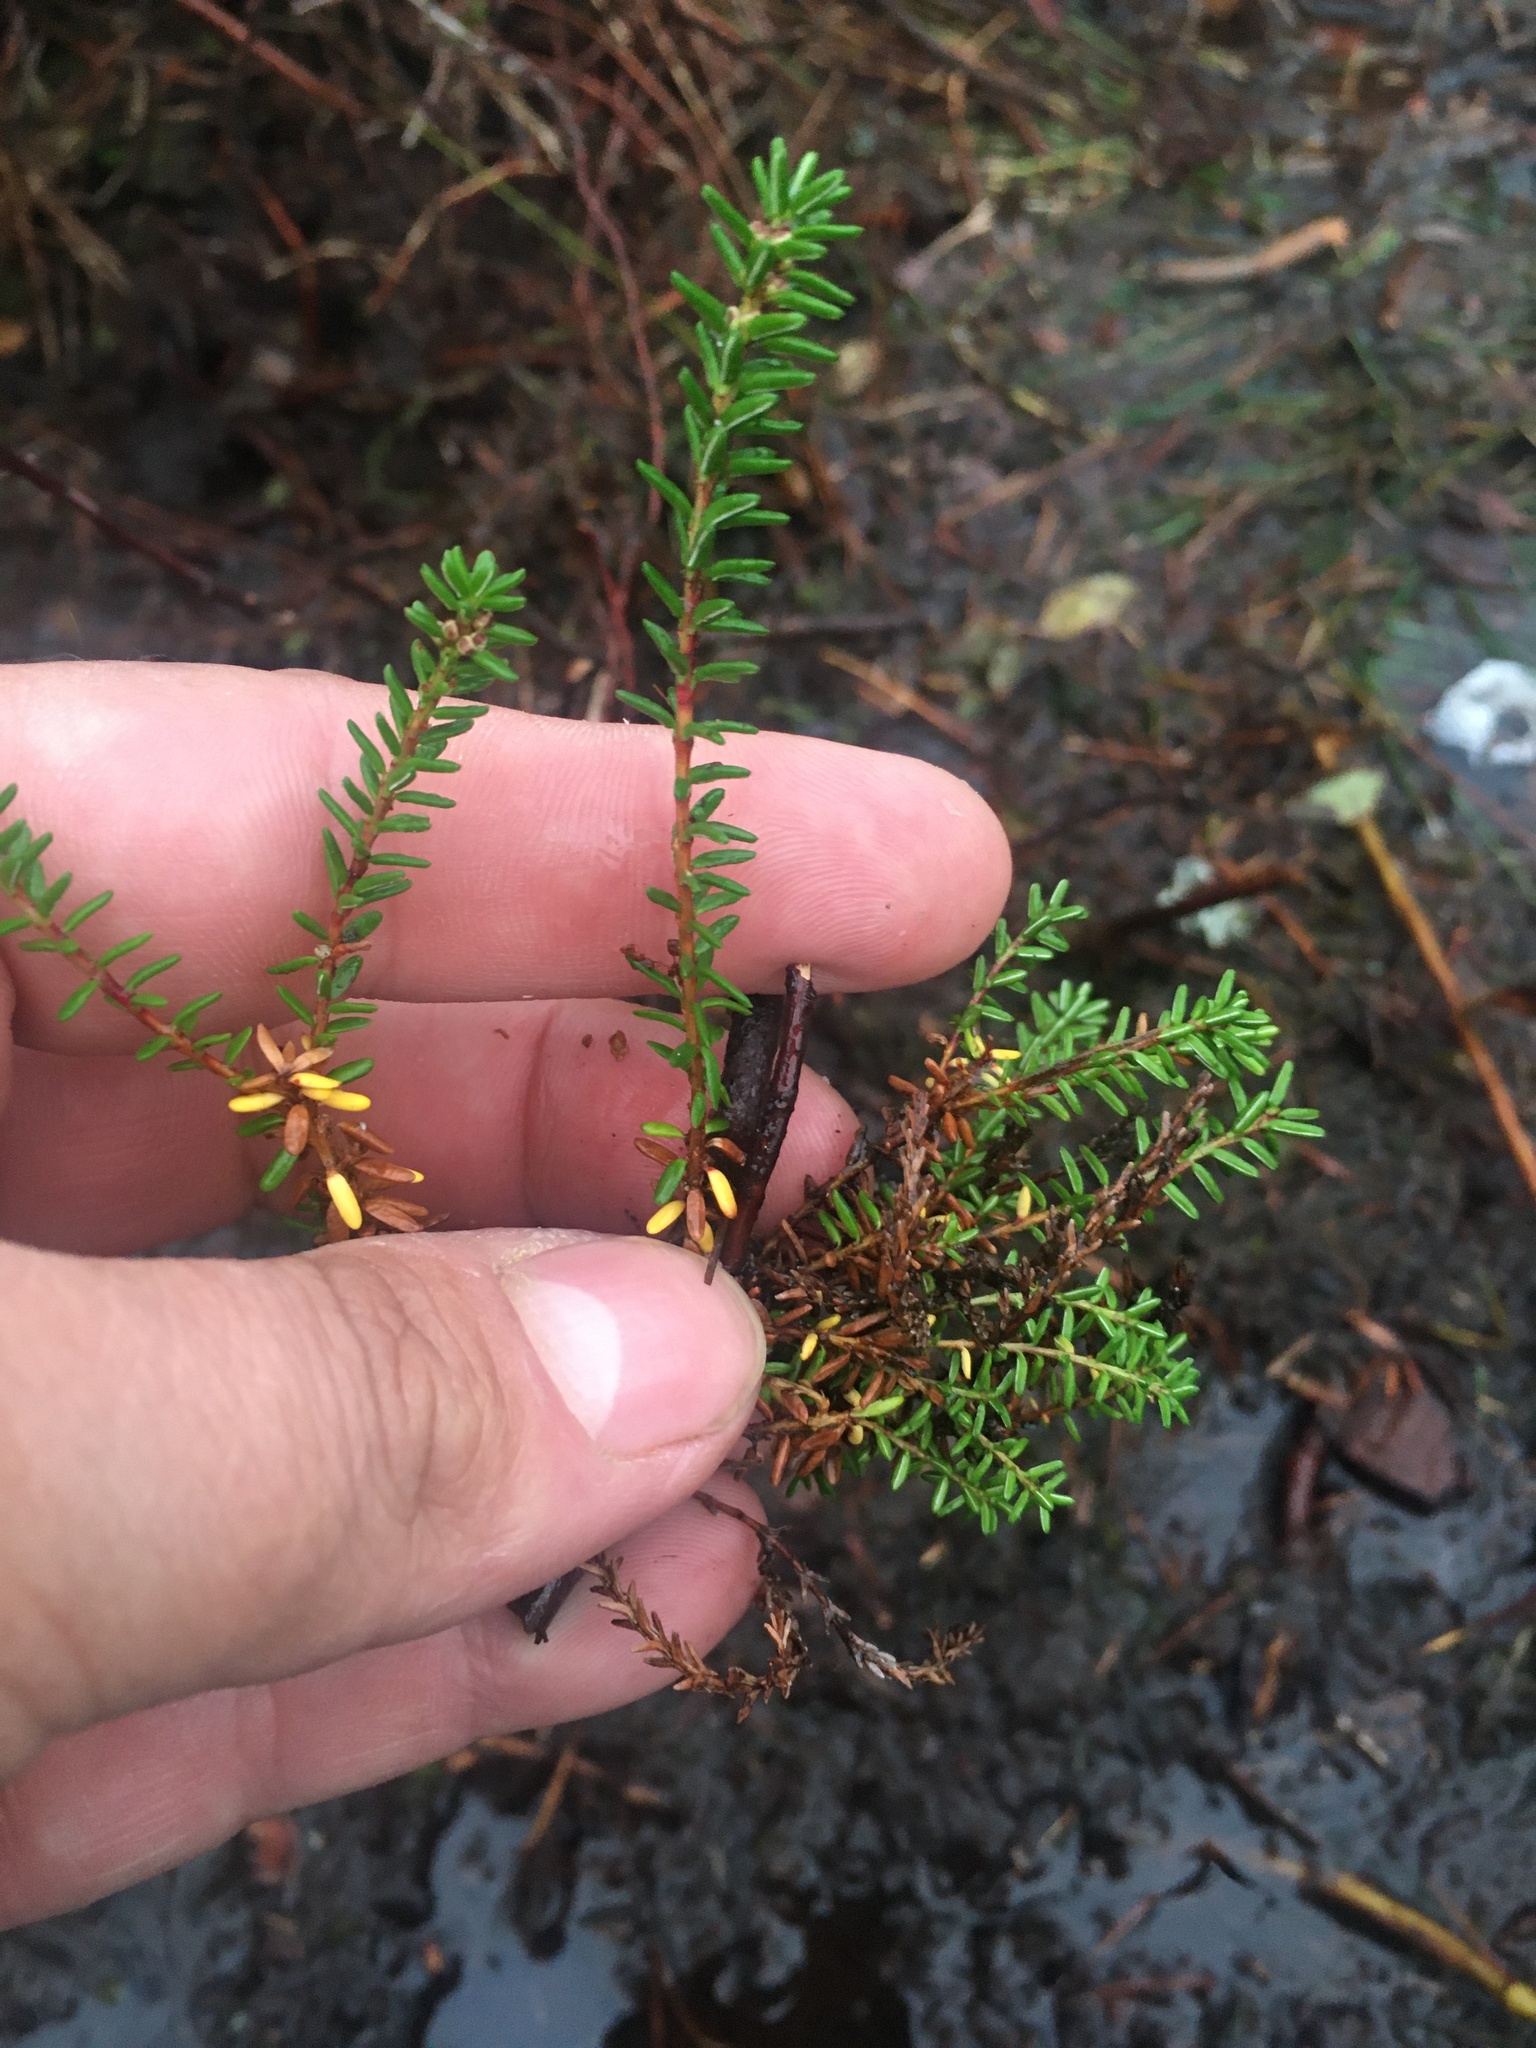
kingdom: Plantae
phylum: Tracheophyta
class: Magnoliopsida
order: Ericales
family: Ericaceae
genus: Empetrum
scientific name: Empetrum nigrum
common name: Black crowberry
